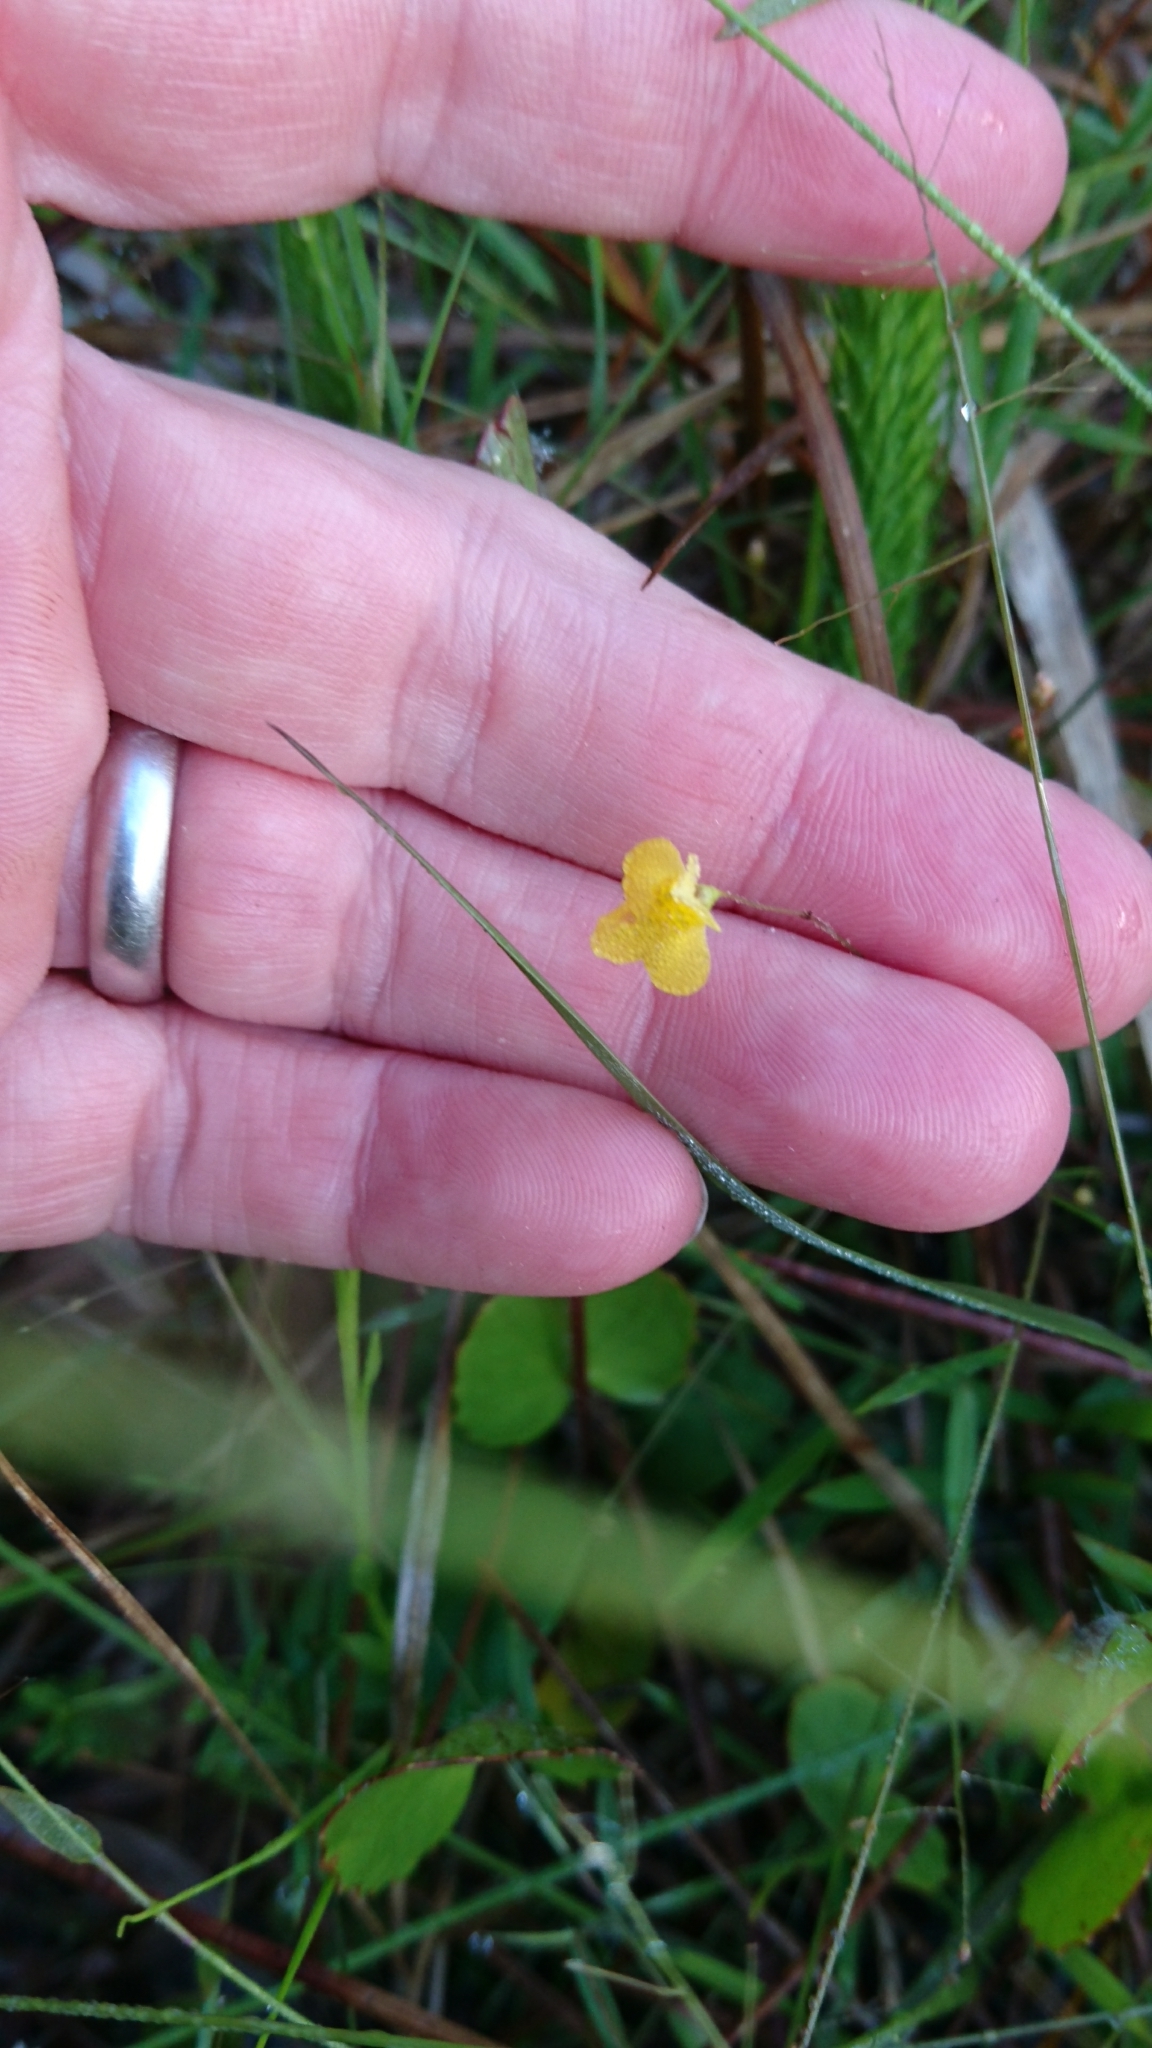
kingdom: Plantae
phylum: Tracheophyta
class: Magnoliopsida
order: Lamiales
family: Lentibulariaceae
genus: Utricularia
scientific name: Utricularia subulata
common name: Tiny bladderwort
